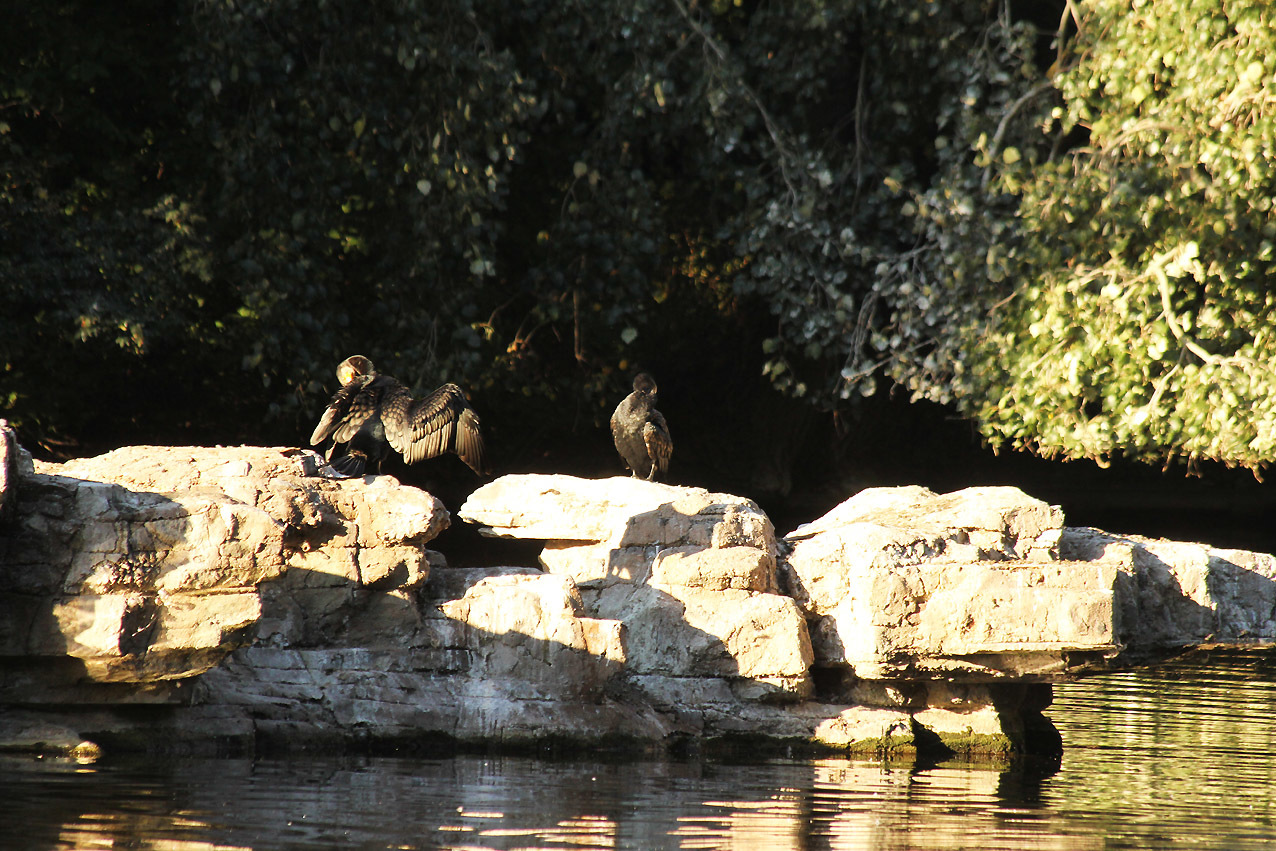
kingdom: Animalia
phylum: Chordata
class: Aves
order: Suliformes
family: Phalacrocoracidae
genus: Phalacrocorax
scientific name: Phalacrocorax carbo
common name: Great cormorant
